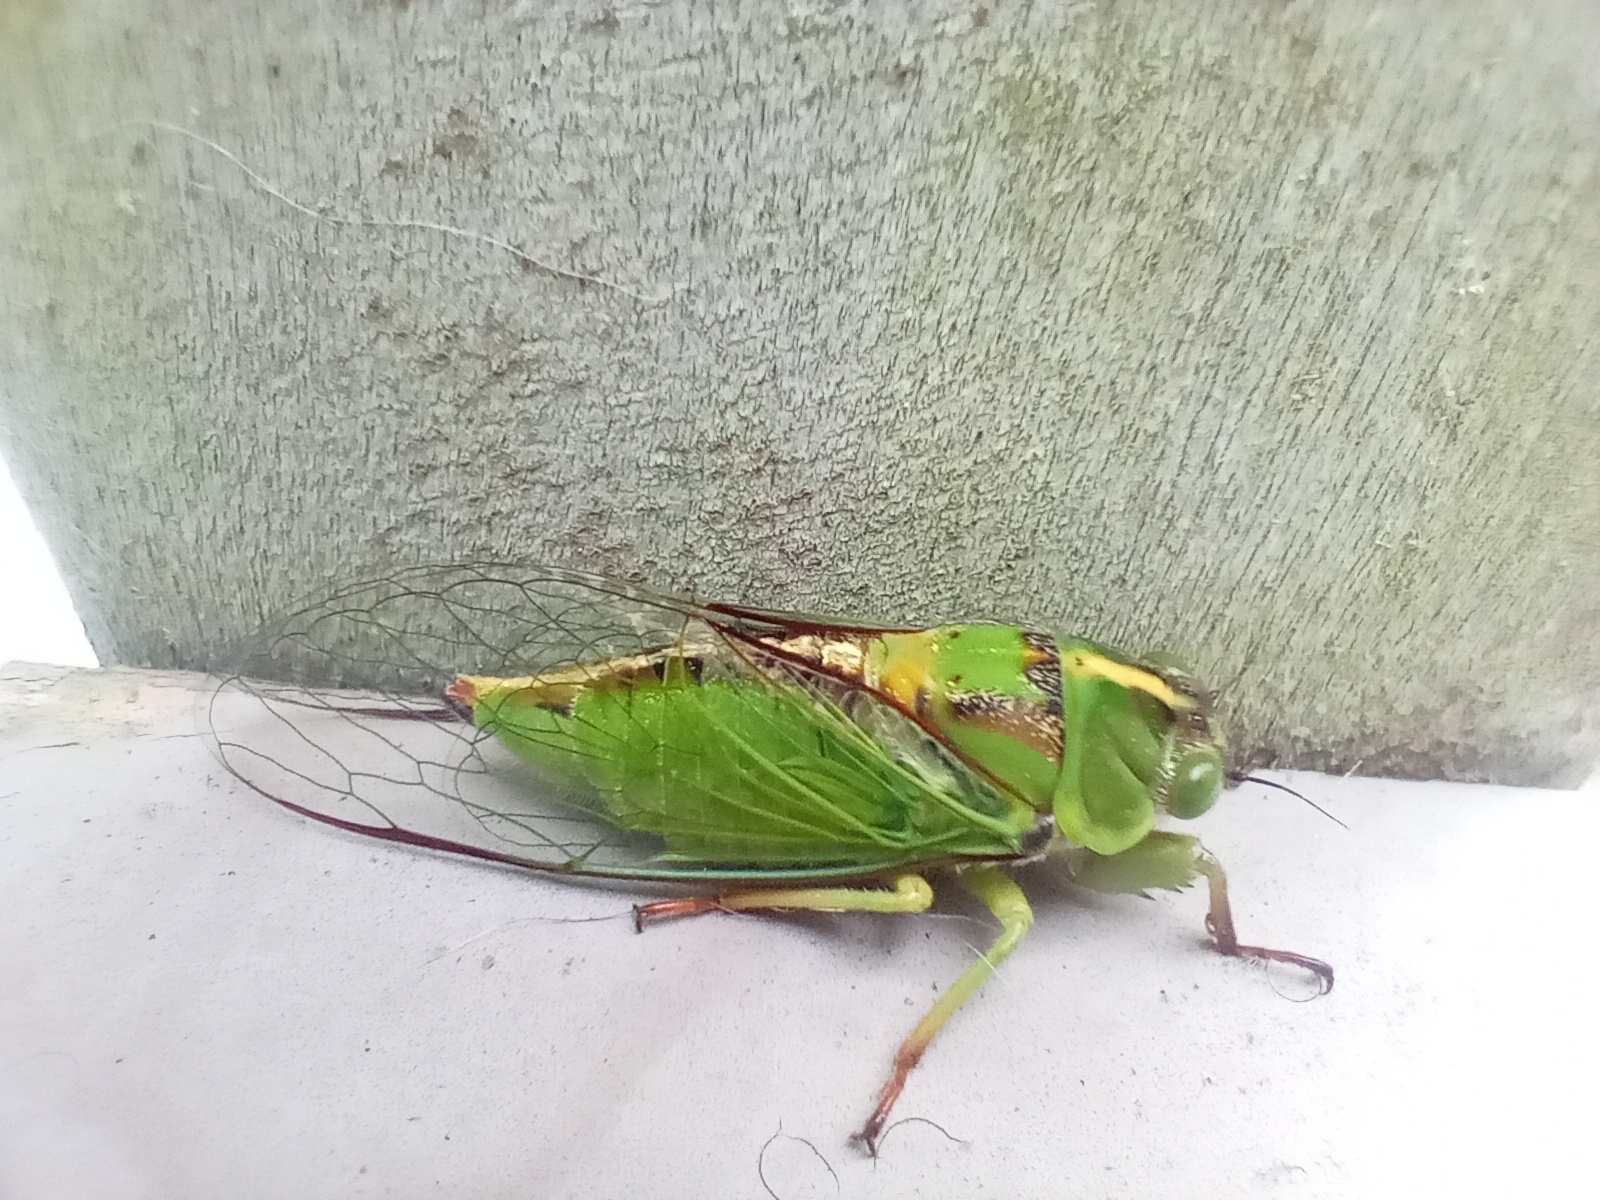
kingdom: Animalia
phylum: Arthropoda
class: Insecta
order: Hemiptera
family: Cicadidae
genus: Kikihia
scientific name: Kikihia subalpina
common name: Chathams cicada
